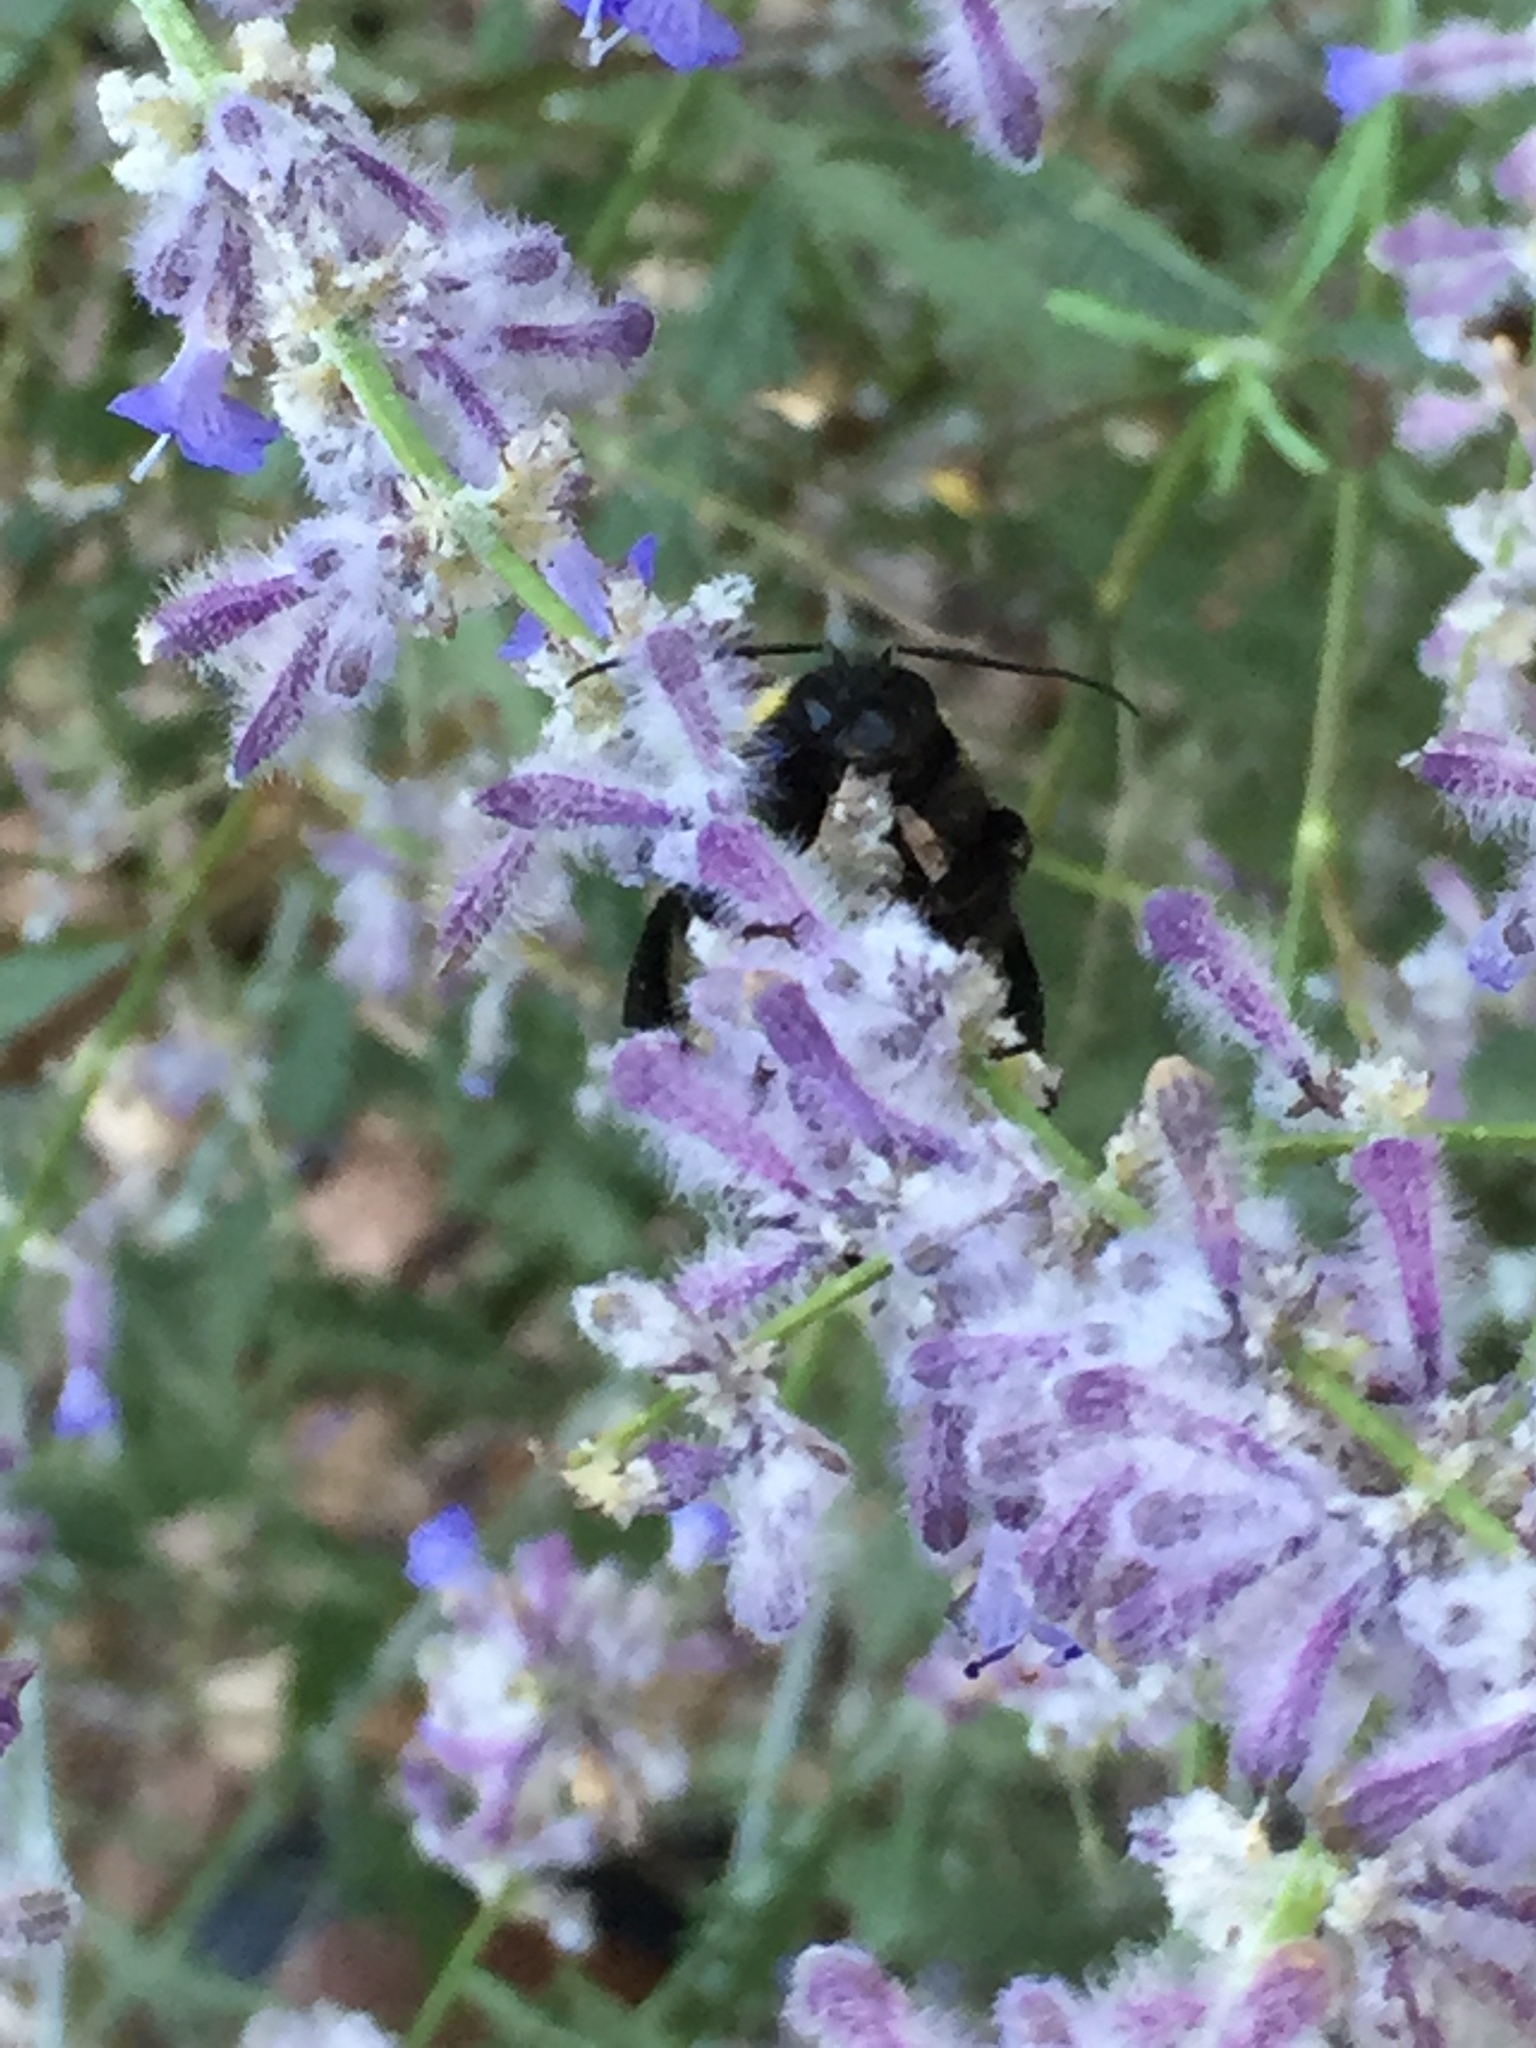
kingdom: Animalia
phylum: Arthropoda
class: Insecta
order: Hymenoptera
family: Apidae
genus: Bombus
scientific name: Bombus sonorus
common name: Sonoran bumble bee
